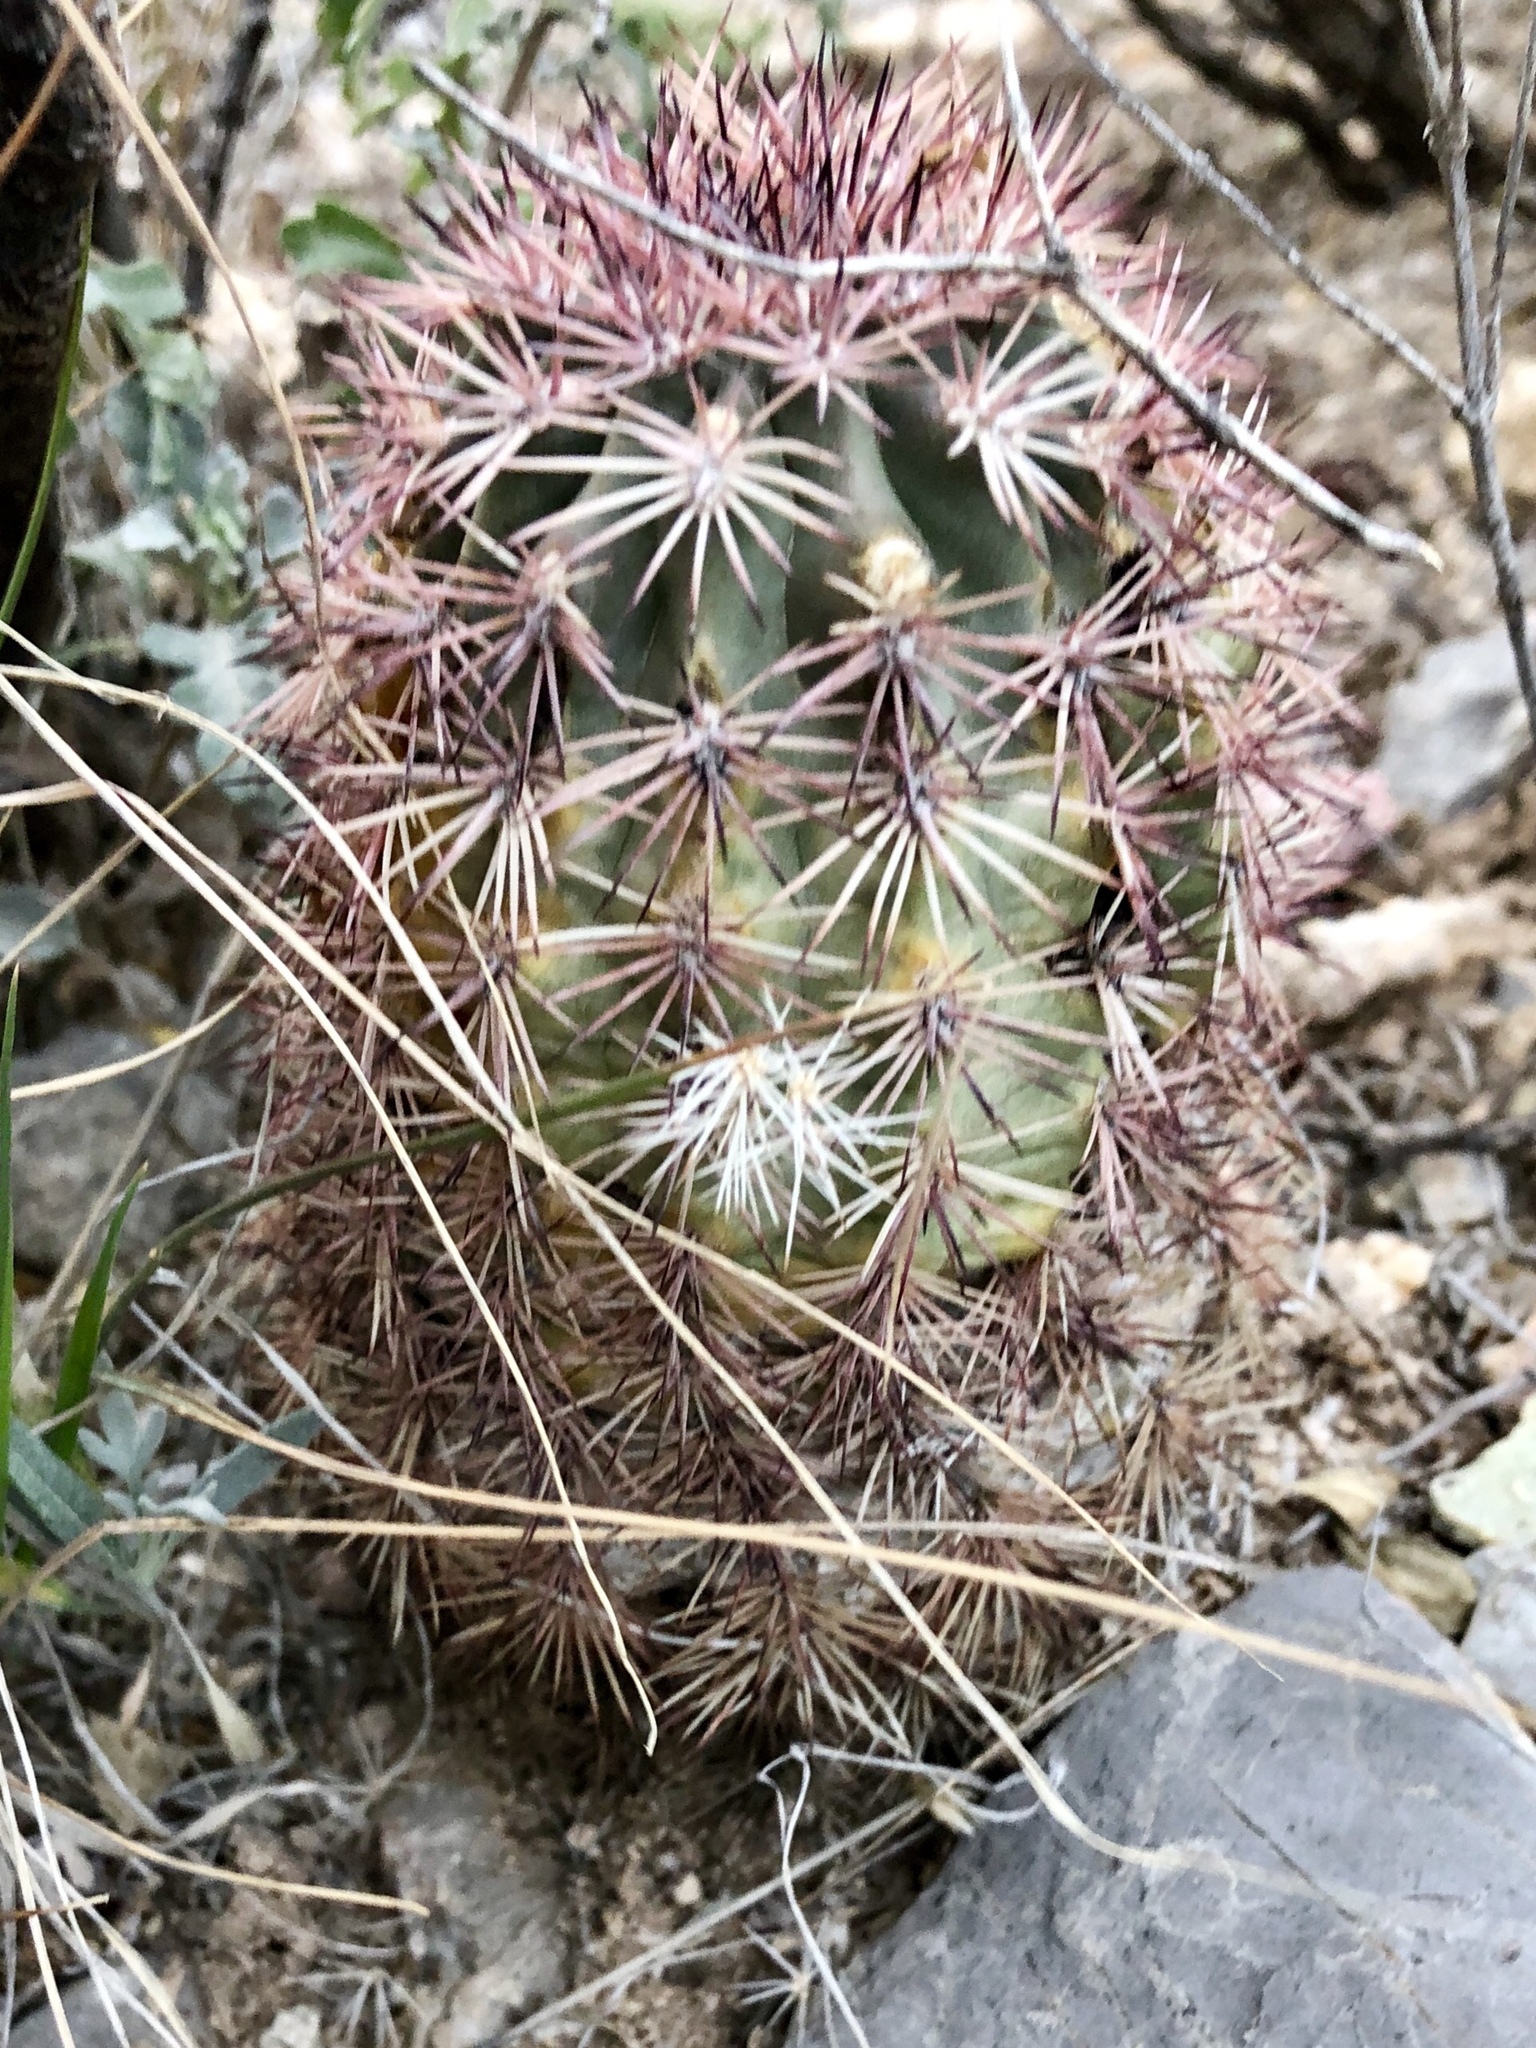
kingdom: Plantae
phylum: Tracheophyta
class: Magnoliopsida
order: Caryophyllales
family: Cactaceae
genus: Echinocereus
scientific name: Echinocereus roetteri
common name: Lloyd's hedgehog cactus
